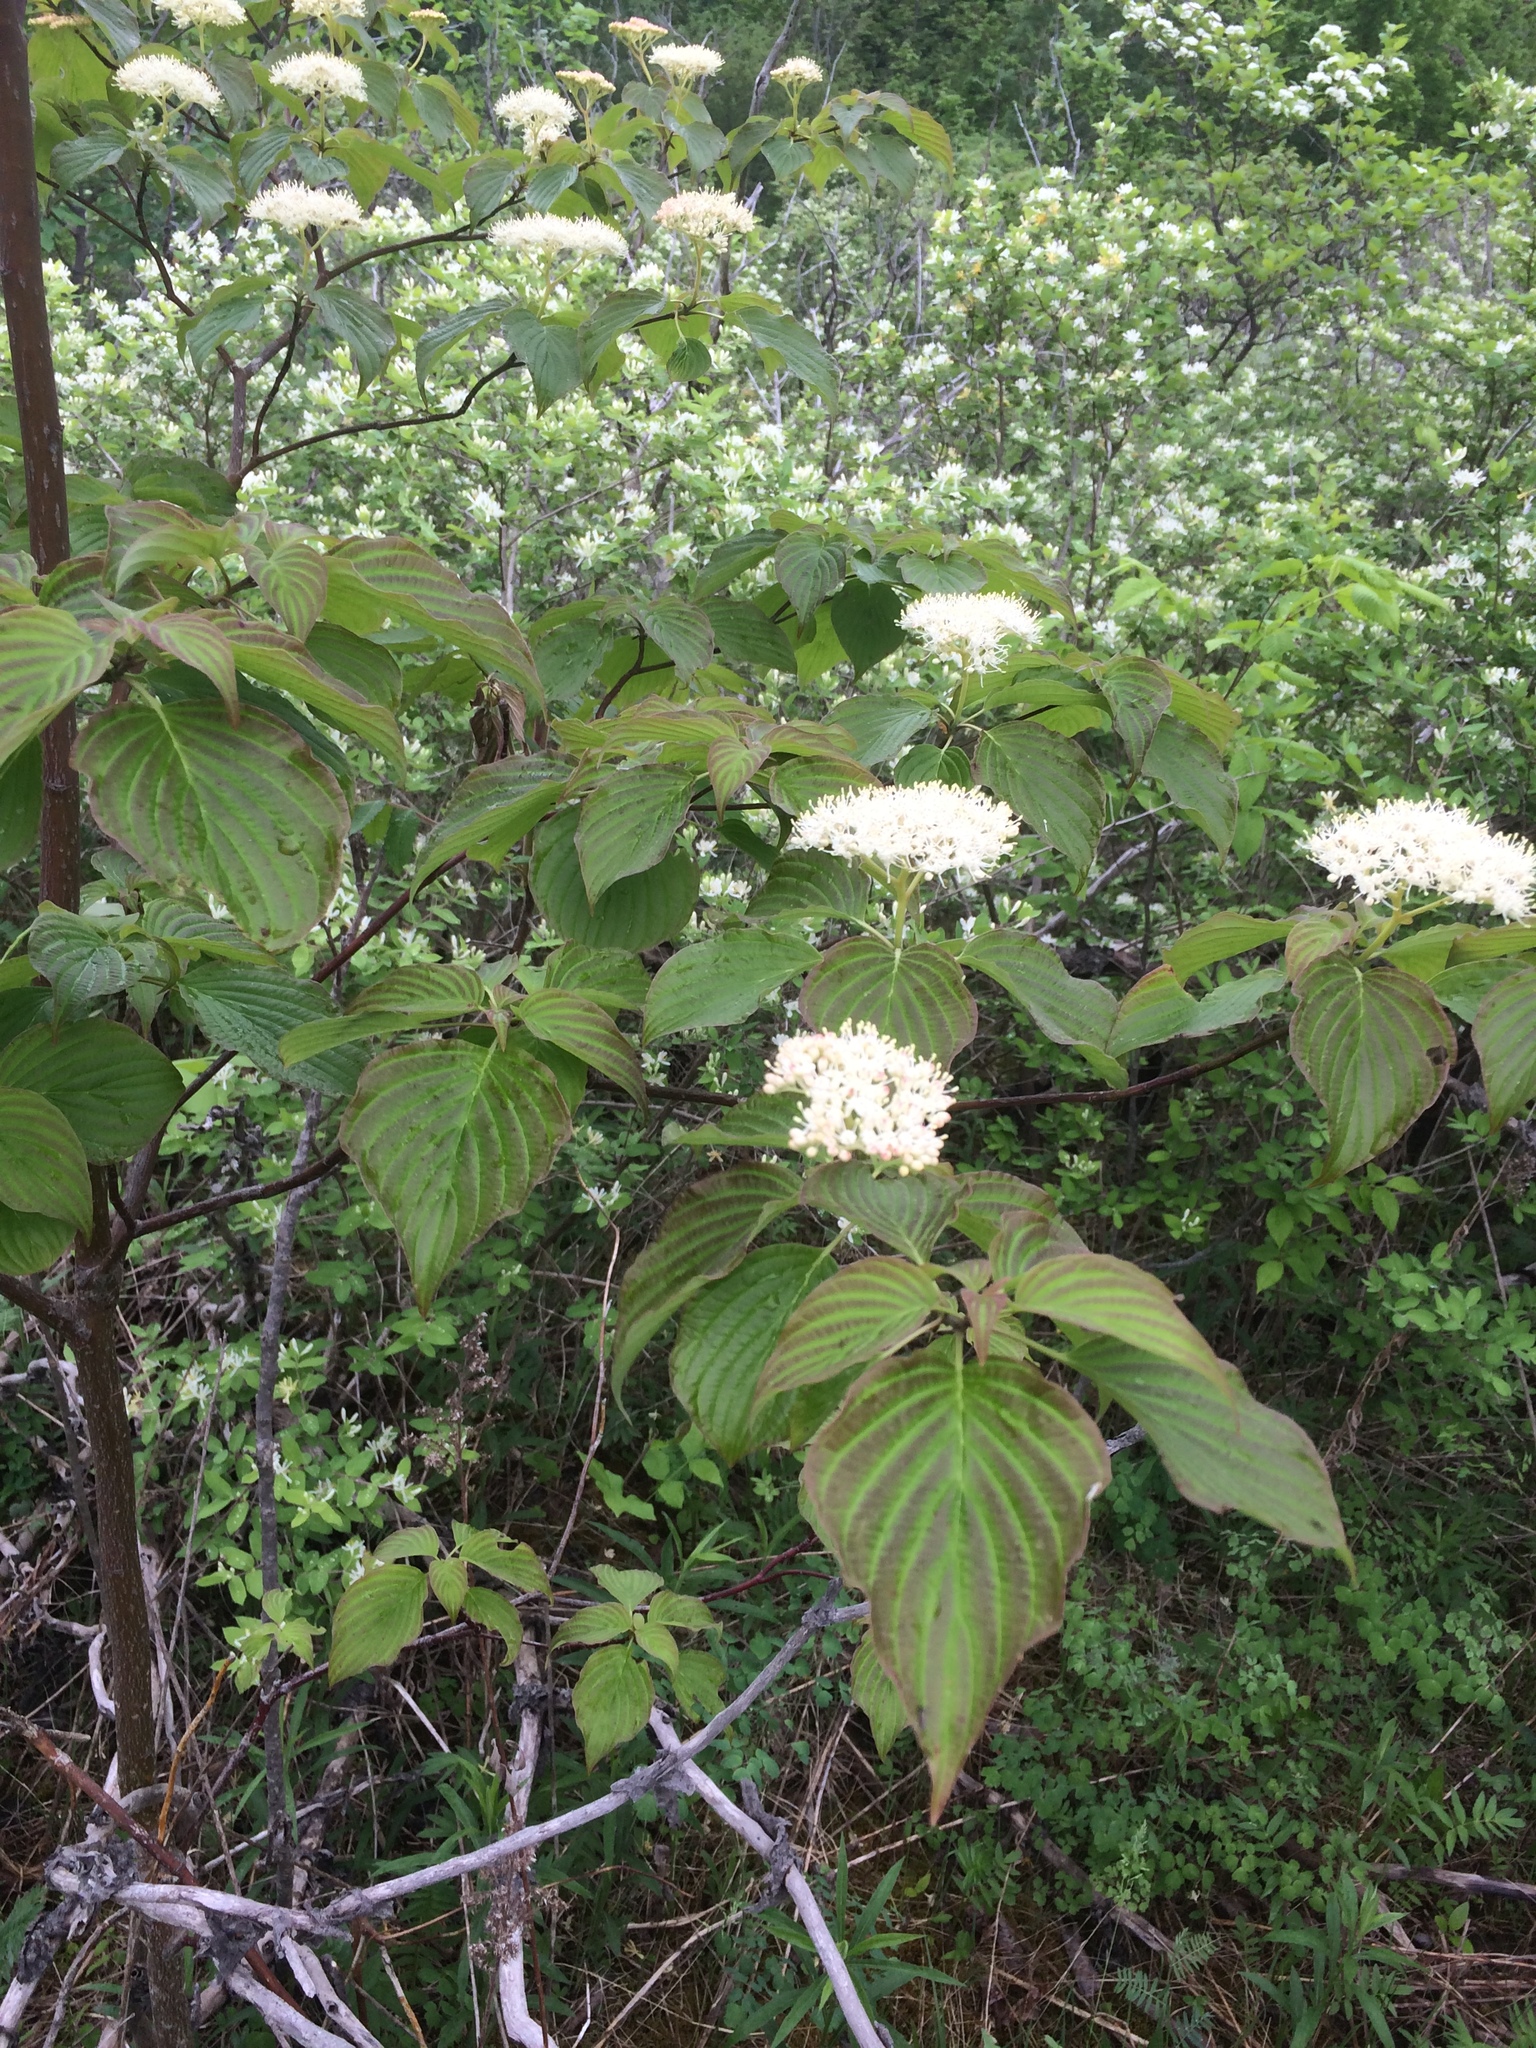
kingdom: Plantae
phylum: Tracheophyta
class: Magnoliopsida
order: Cornales
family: Cornaceae
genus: Cornus
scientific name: Cornus alternifolia
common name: Pagoda dogwood
